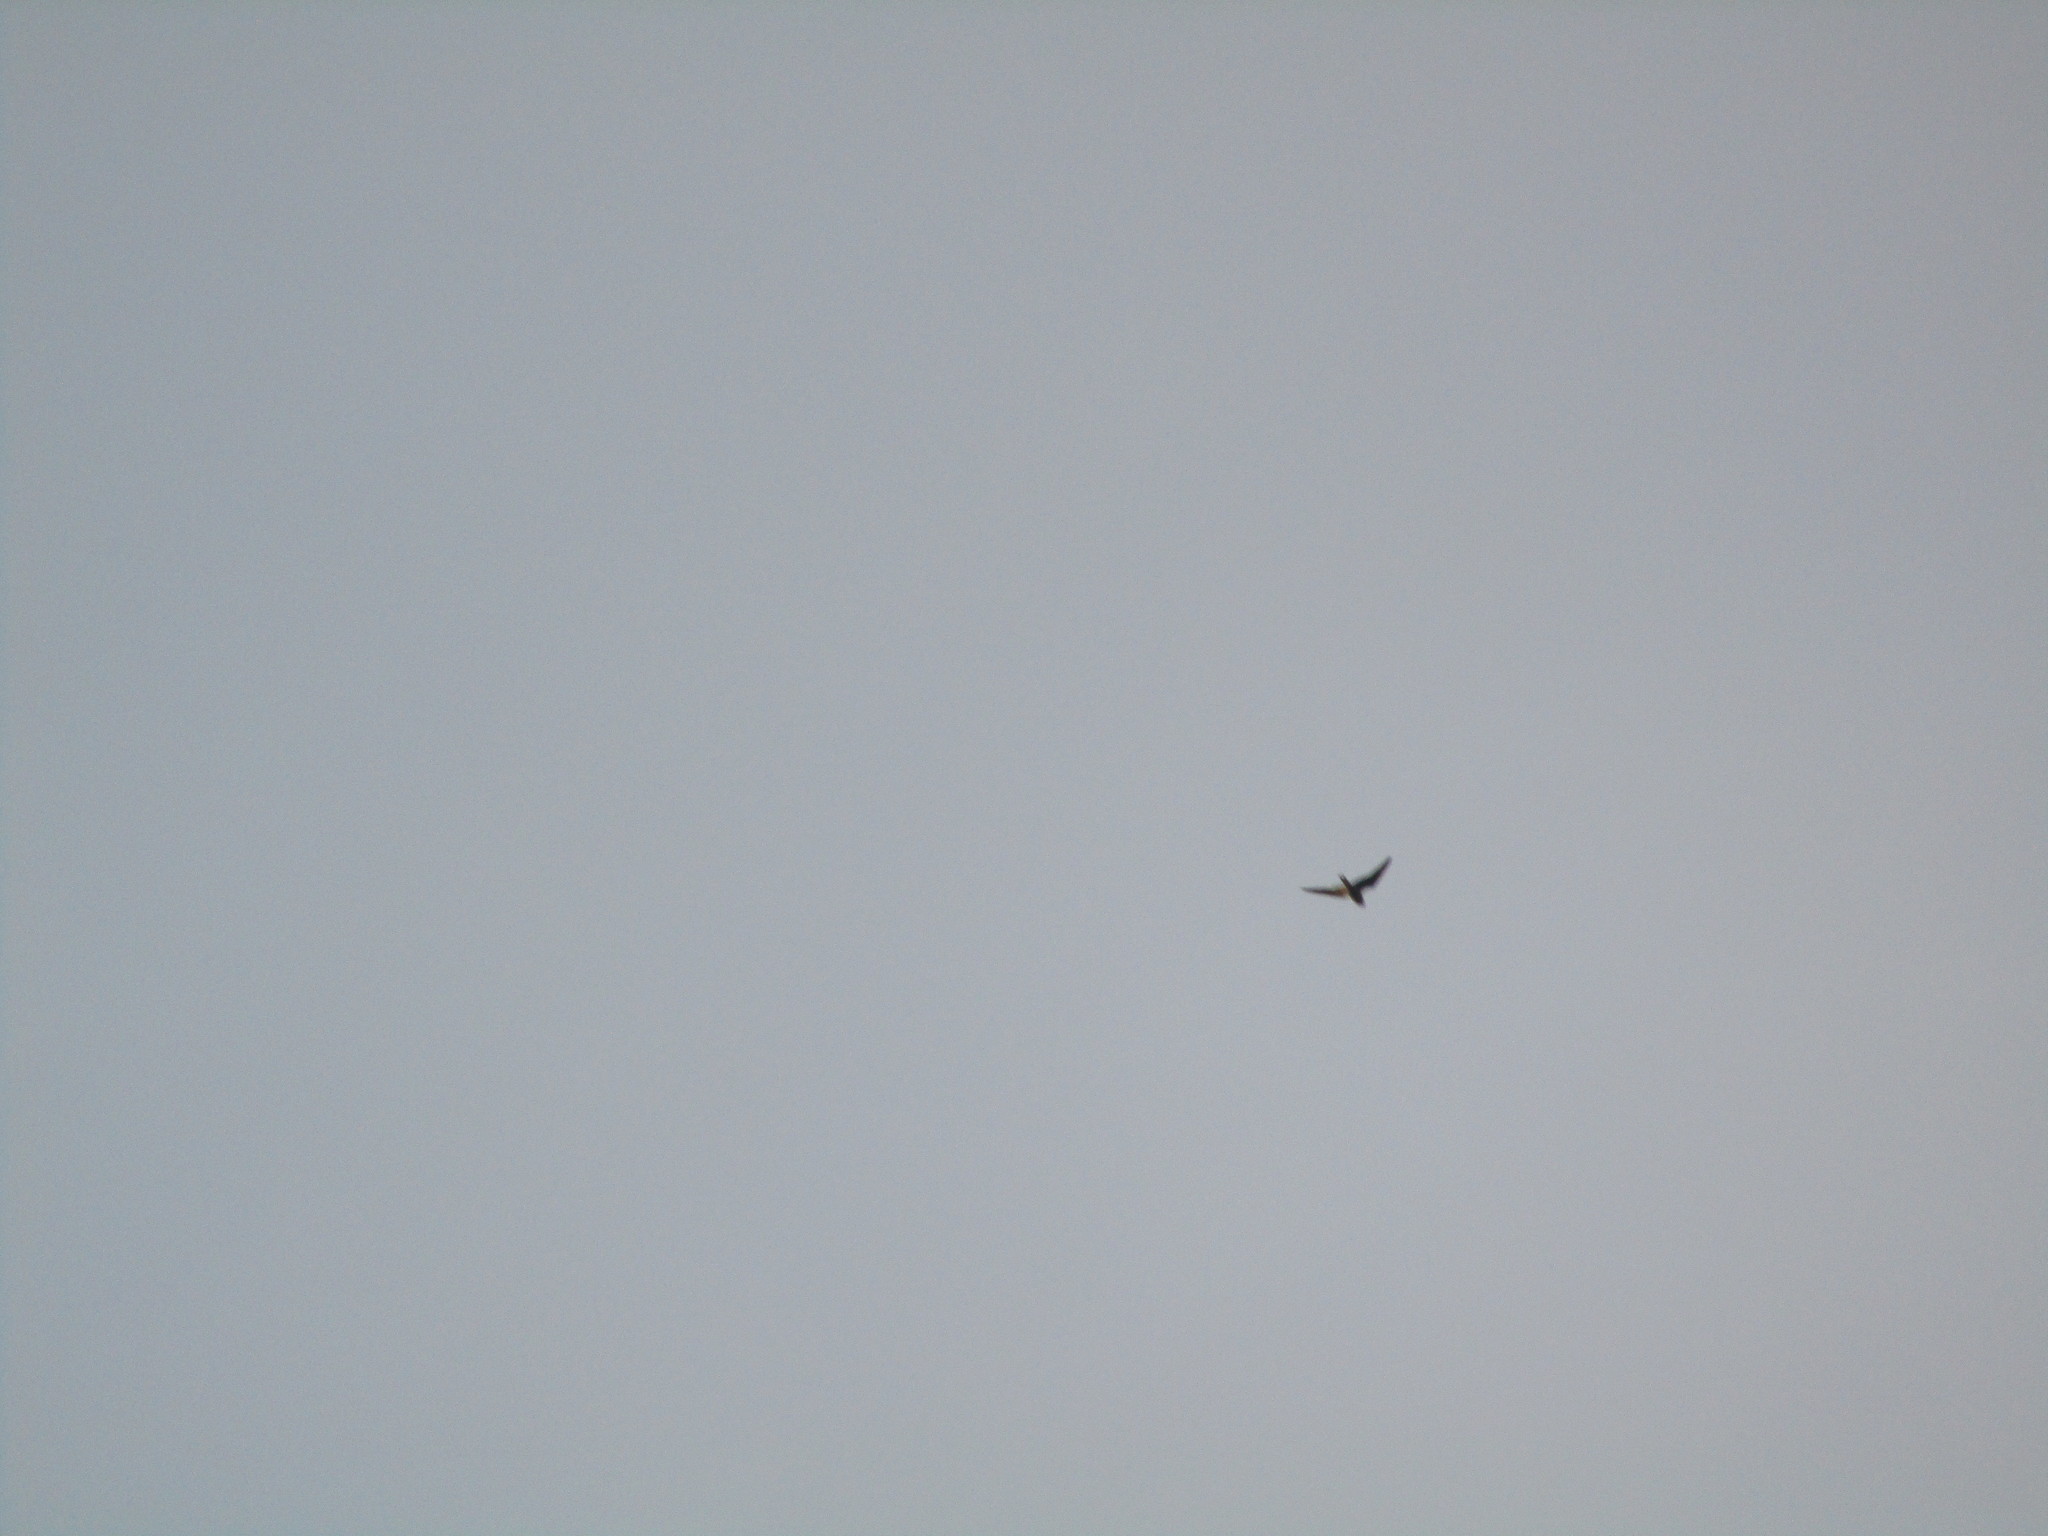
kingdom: Animalia
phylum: Chordata
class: Aves
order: Caprimulgiformes
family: Caprimulgidae
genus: Chordeiles
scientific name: Chordeiles minor
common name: Common nighthawk
